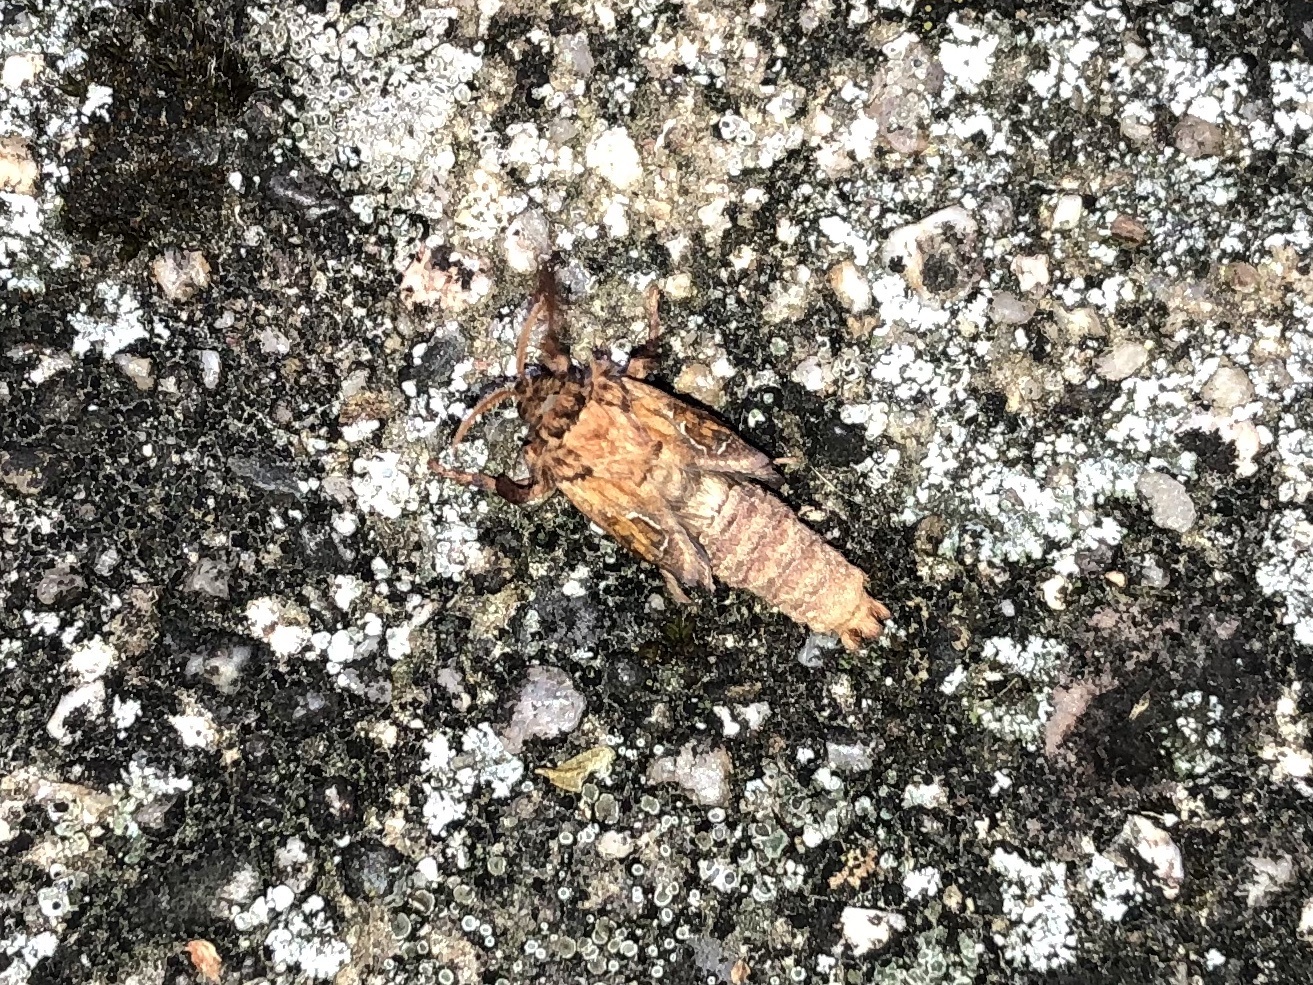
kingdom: Animalia
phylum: Arthropoda
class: Insecta
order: Lepidoptera
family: Hepialidae
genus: Triodia
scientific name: Triodia sylvina
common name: Orange swift
